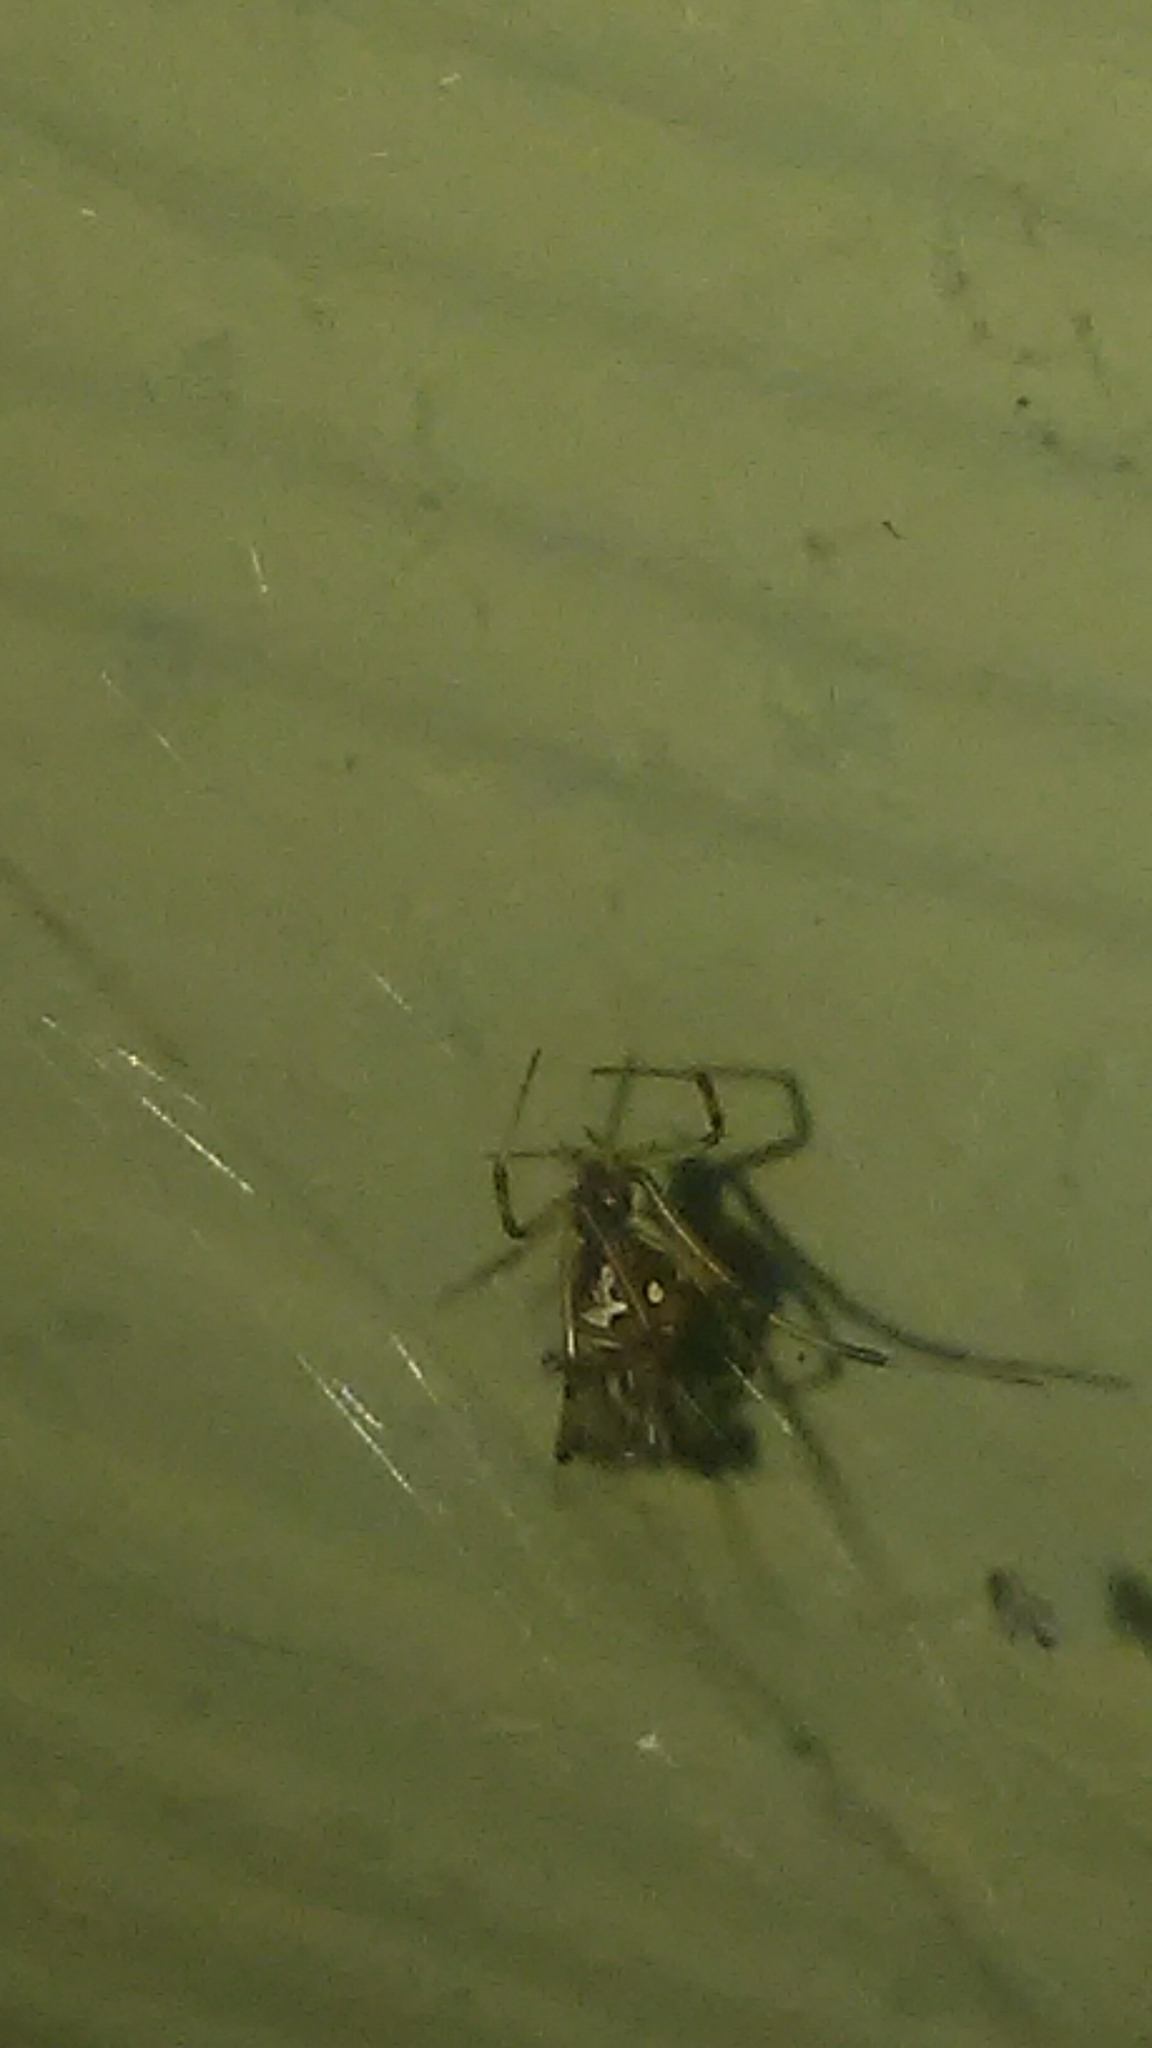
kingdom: Animalia
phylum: Arthropoda
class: Arachnida
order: Araneae
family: Theridiidae
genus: Latrodectus
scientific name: Latrodectus geometricus
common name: Brown widow spider
